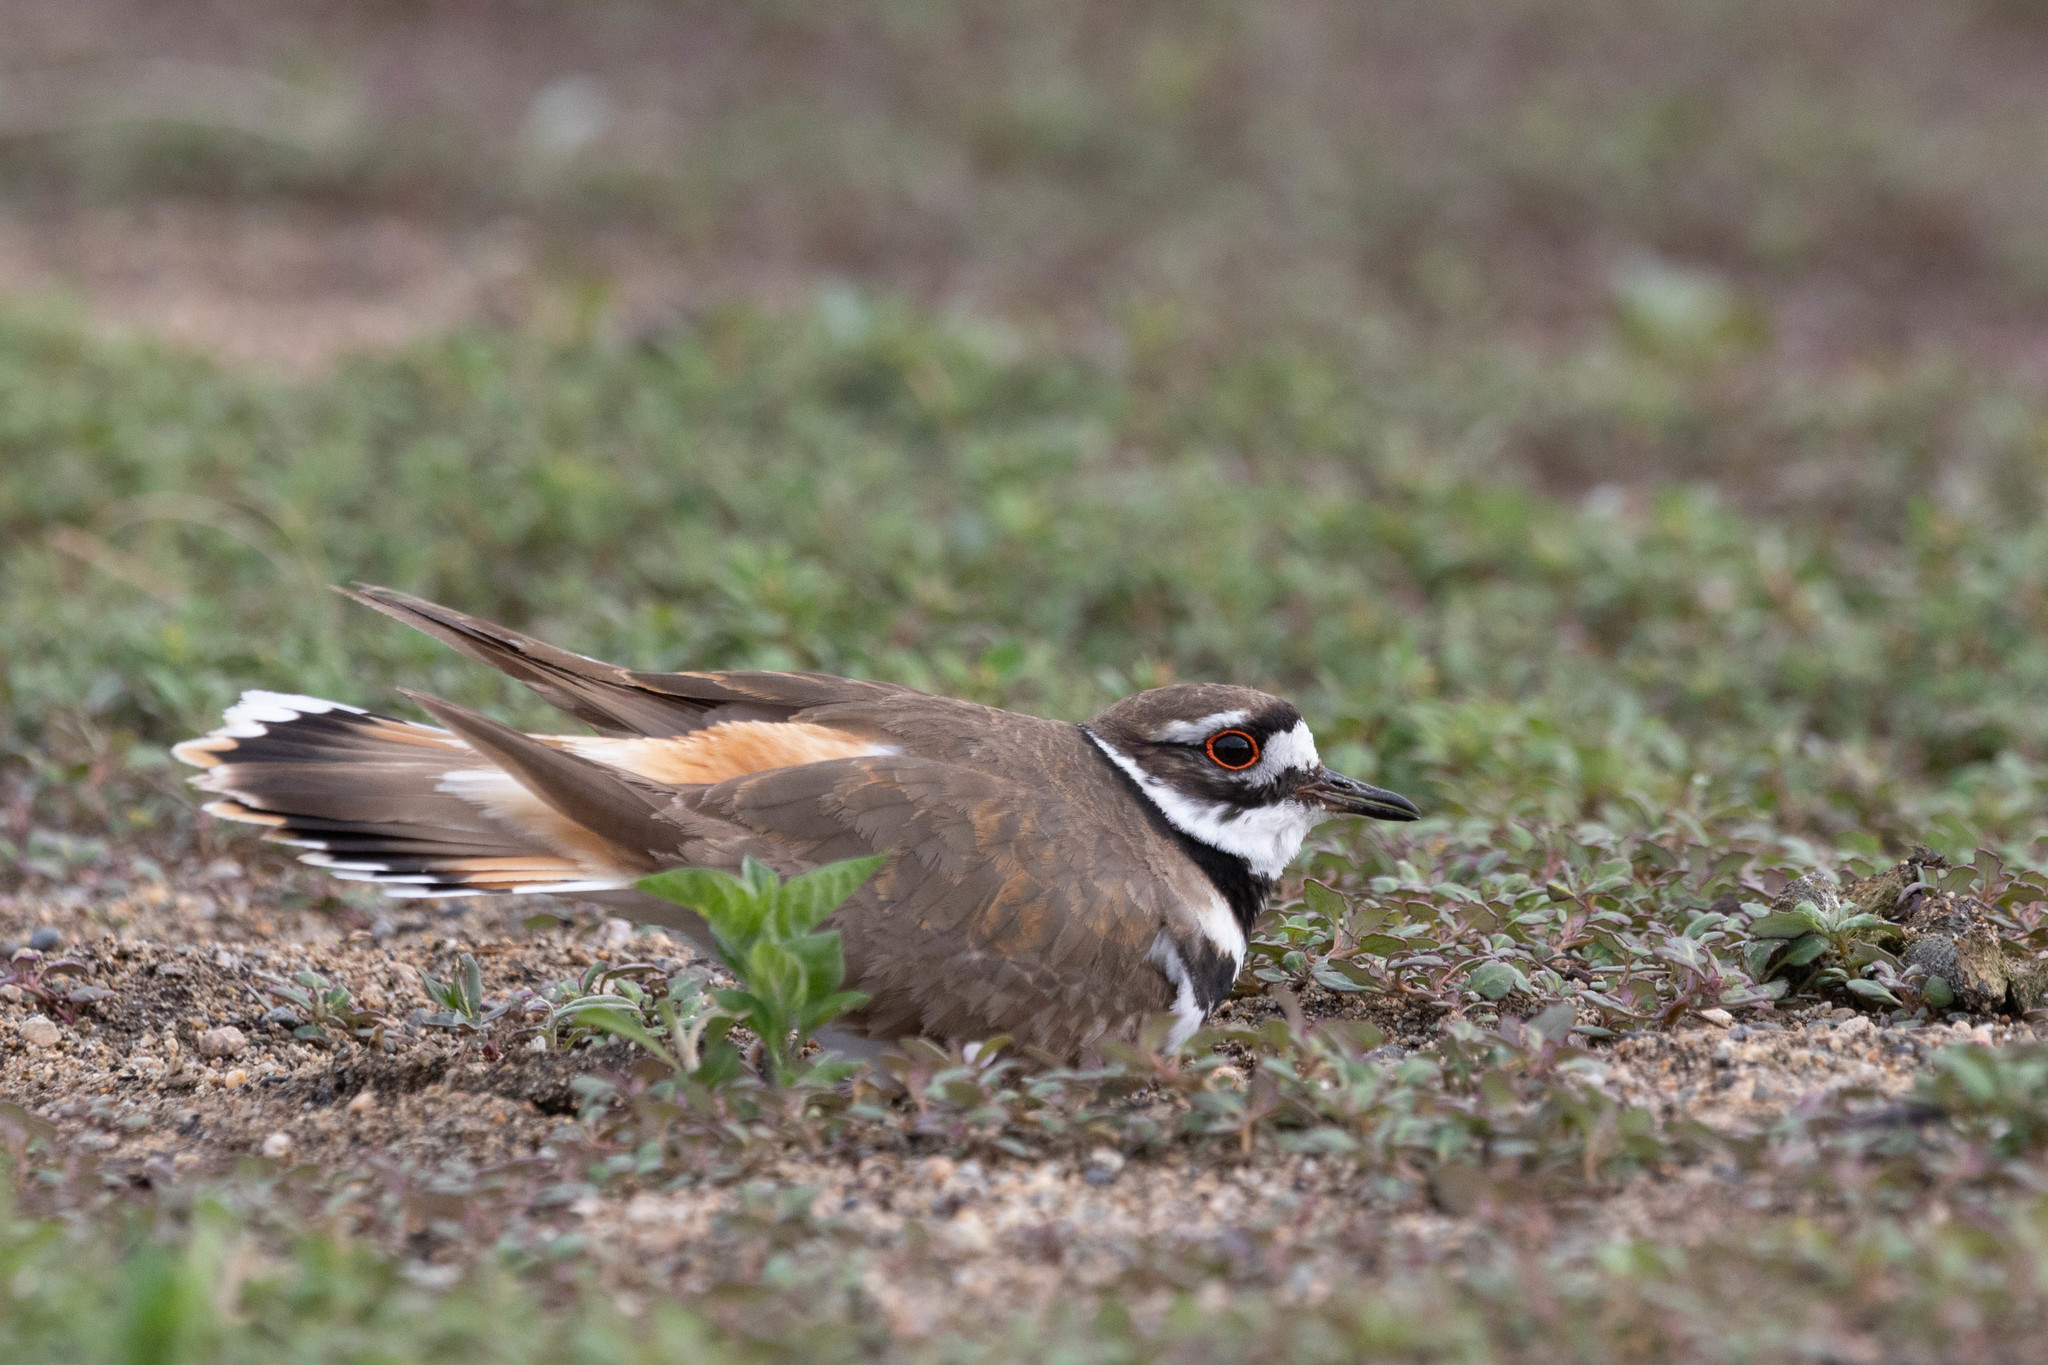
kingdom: Animalia
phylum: Chordata
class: Aves
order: Charadriiformes
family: Charadriidae
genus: Charadrius
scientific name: Charadrius vociferus
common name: Killdeer
